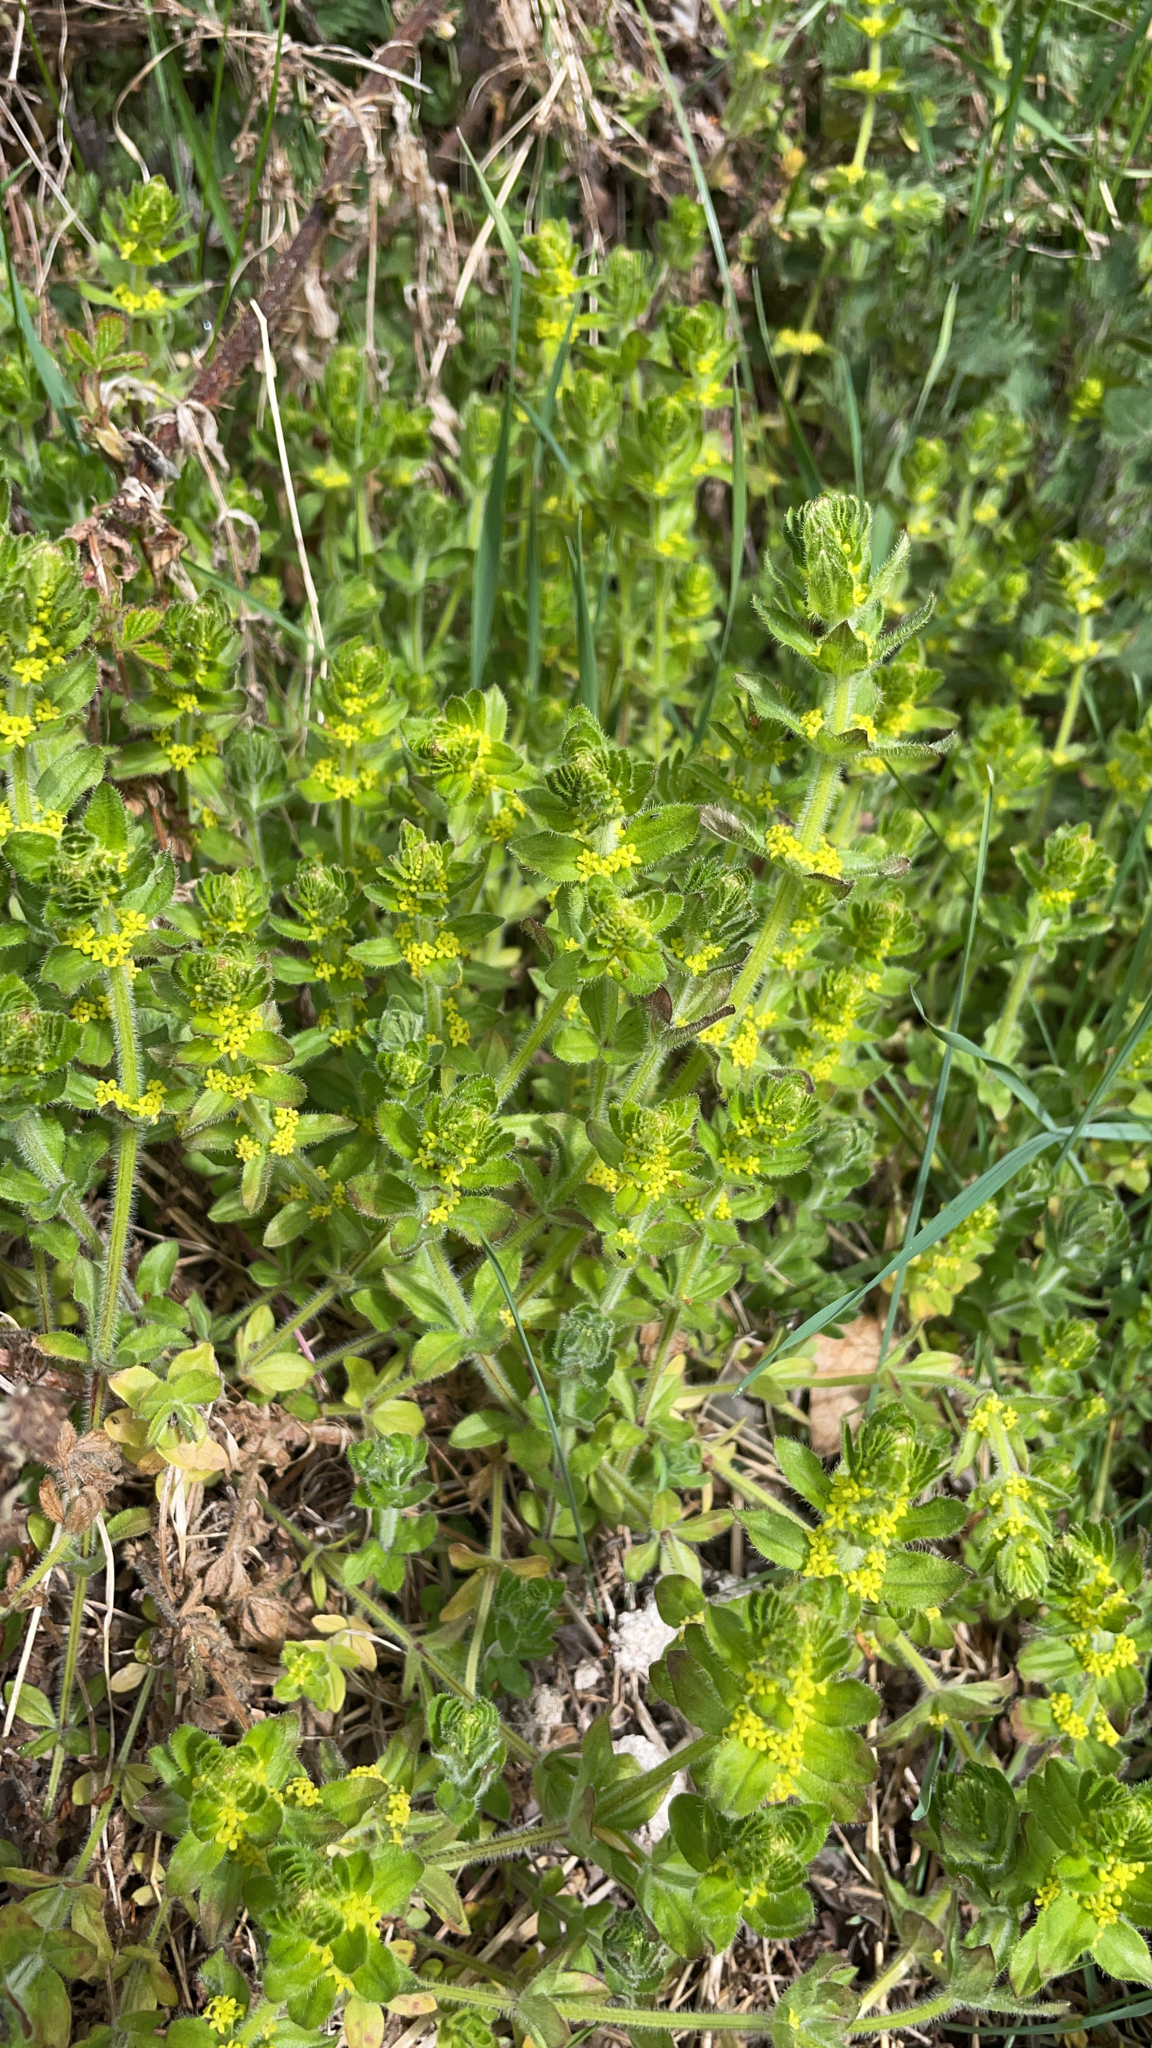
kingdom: Plantae
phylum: Tracheophyta
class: Magnoliopsida
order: Gentianales
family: Rubiaceae
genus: Cruciata
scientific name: Cruciata laevipes
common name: Crosswort
